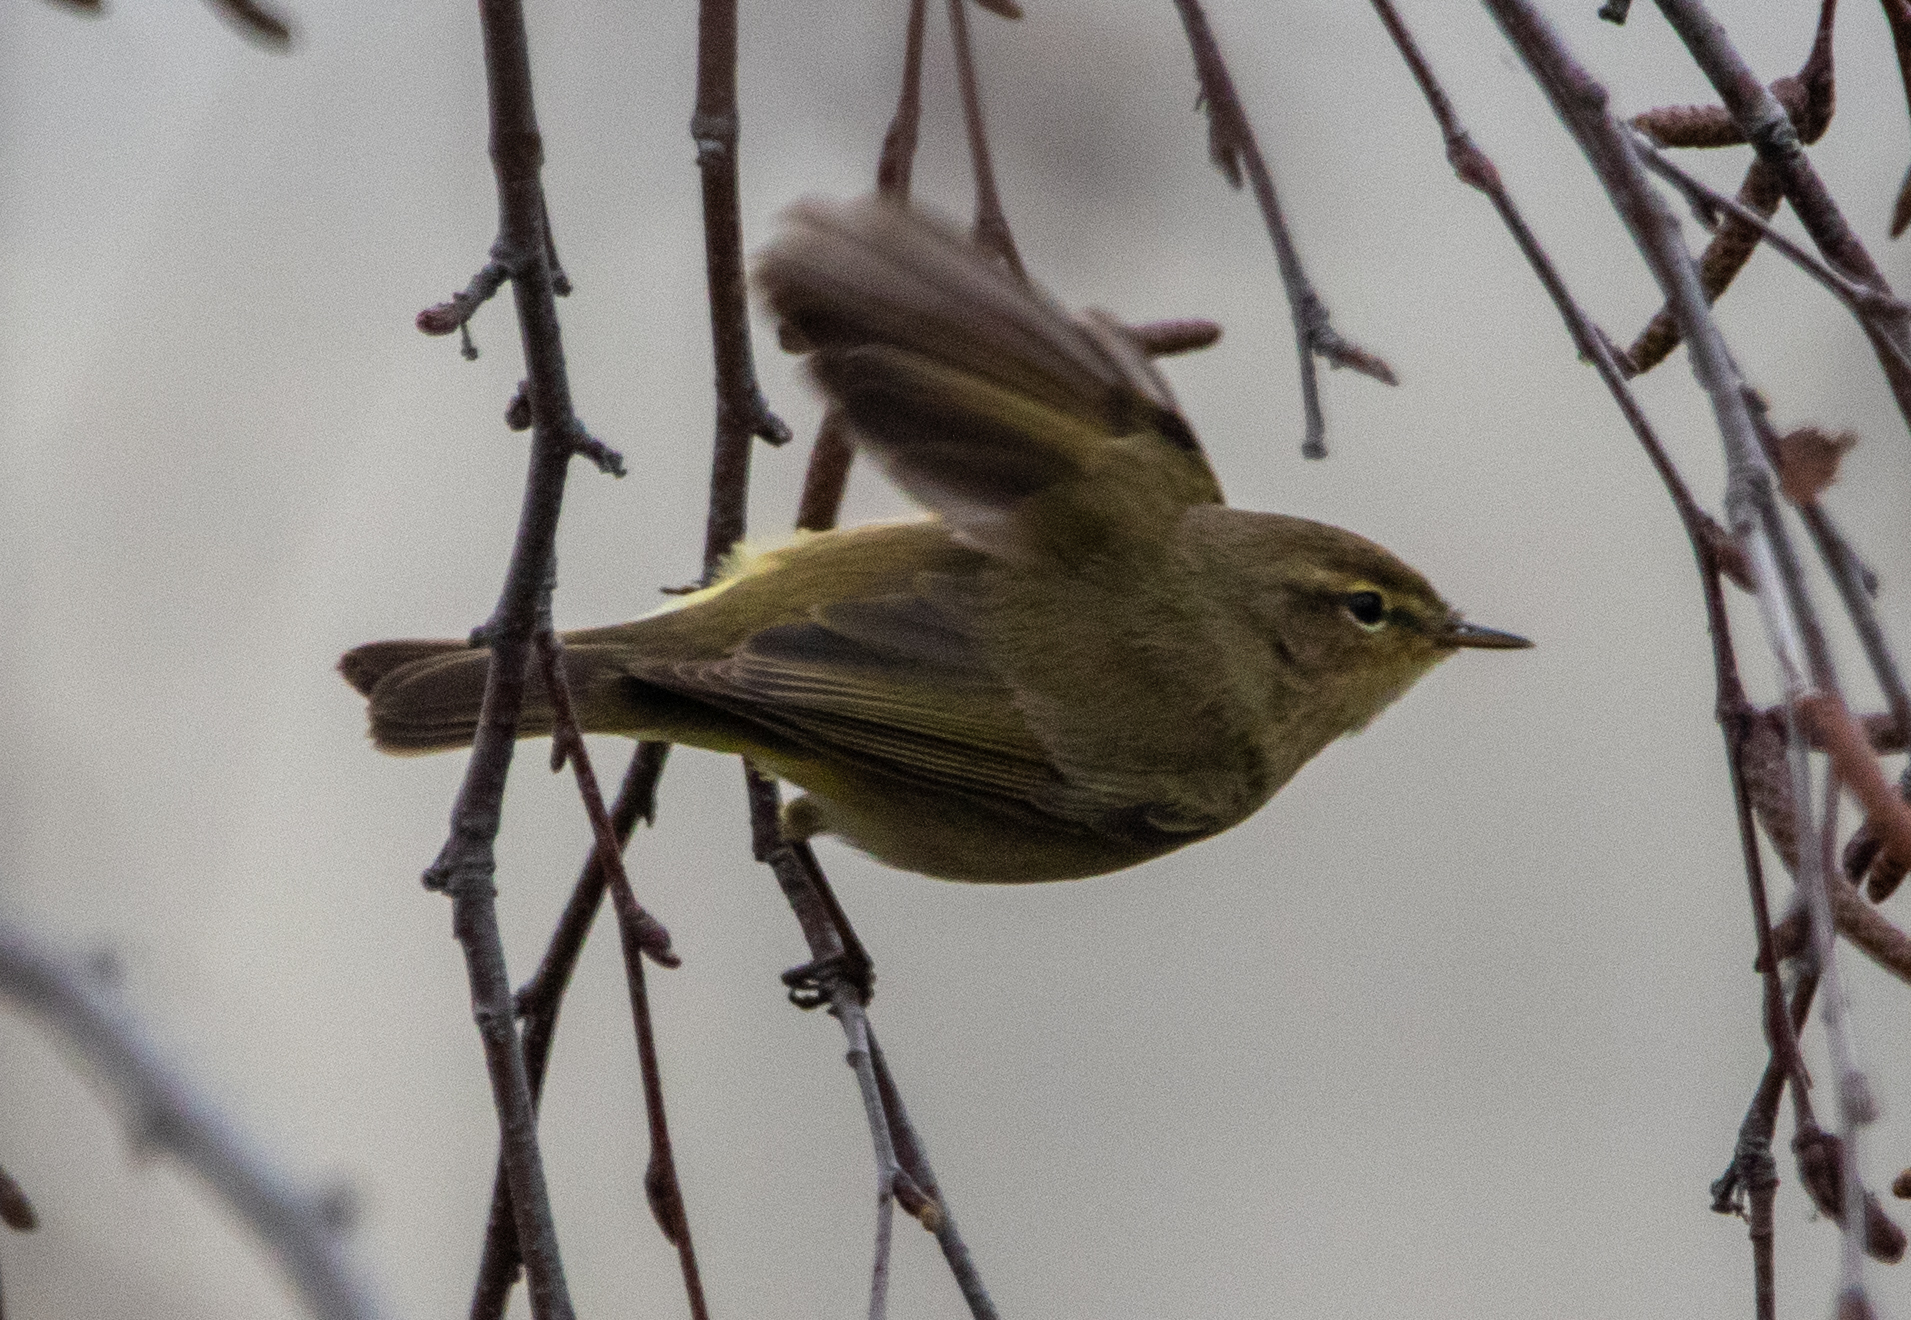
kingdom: Animalia
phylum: Chordata
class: Aves
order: Passeriformes
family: Phylloscopidae
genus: Phylloscopus
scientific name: Phylloscopus collybita
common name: Common chiffchaff
